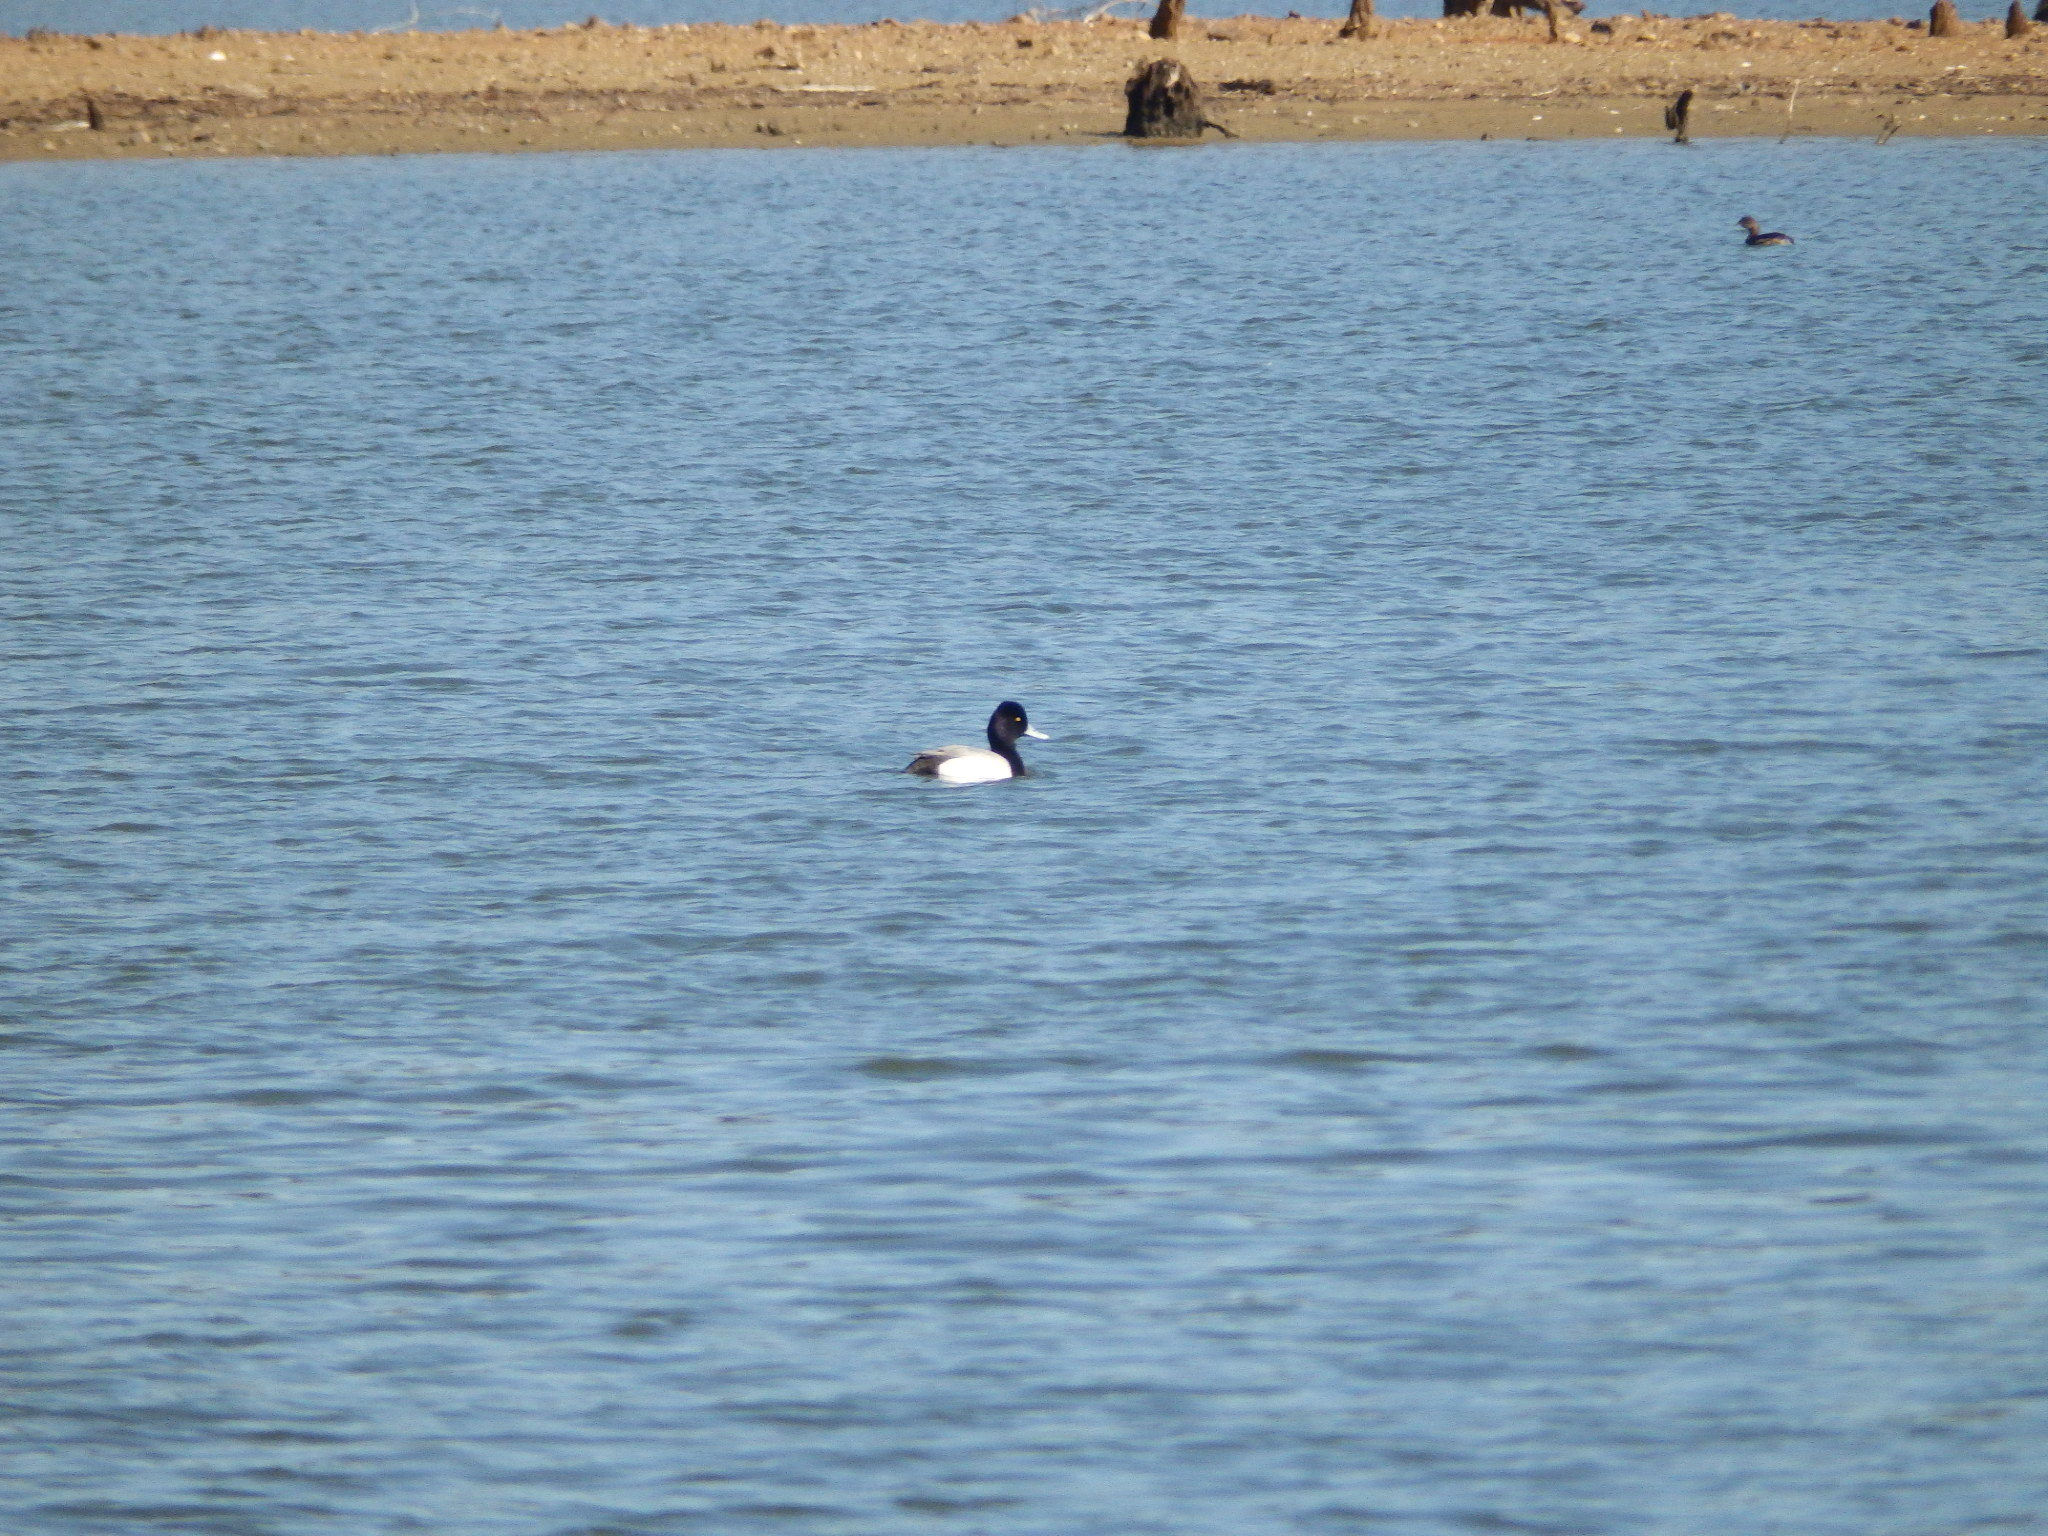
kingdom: Animalia
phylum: Chordata
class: Aves
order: Anseriformes
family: Anatidae
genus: Aythya
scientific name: Aythya affinis
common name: Lesser scaup
